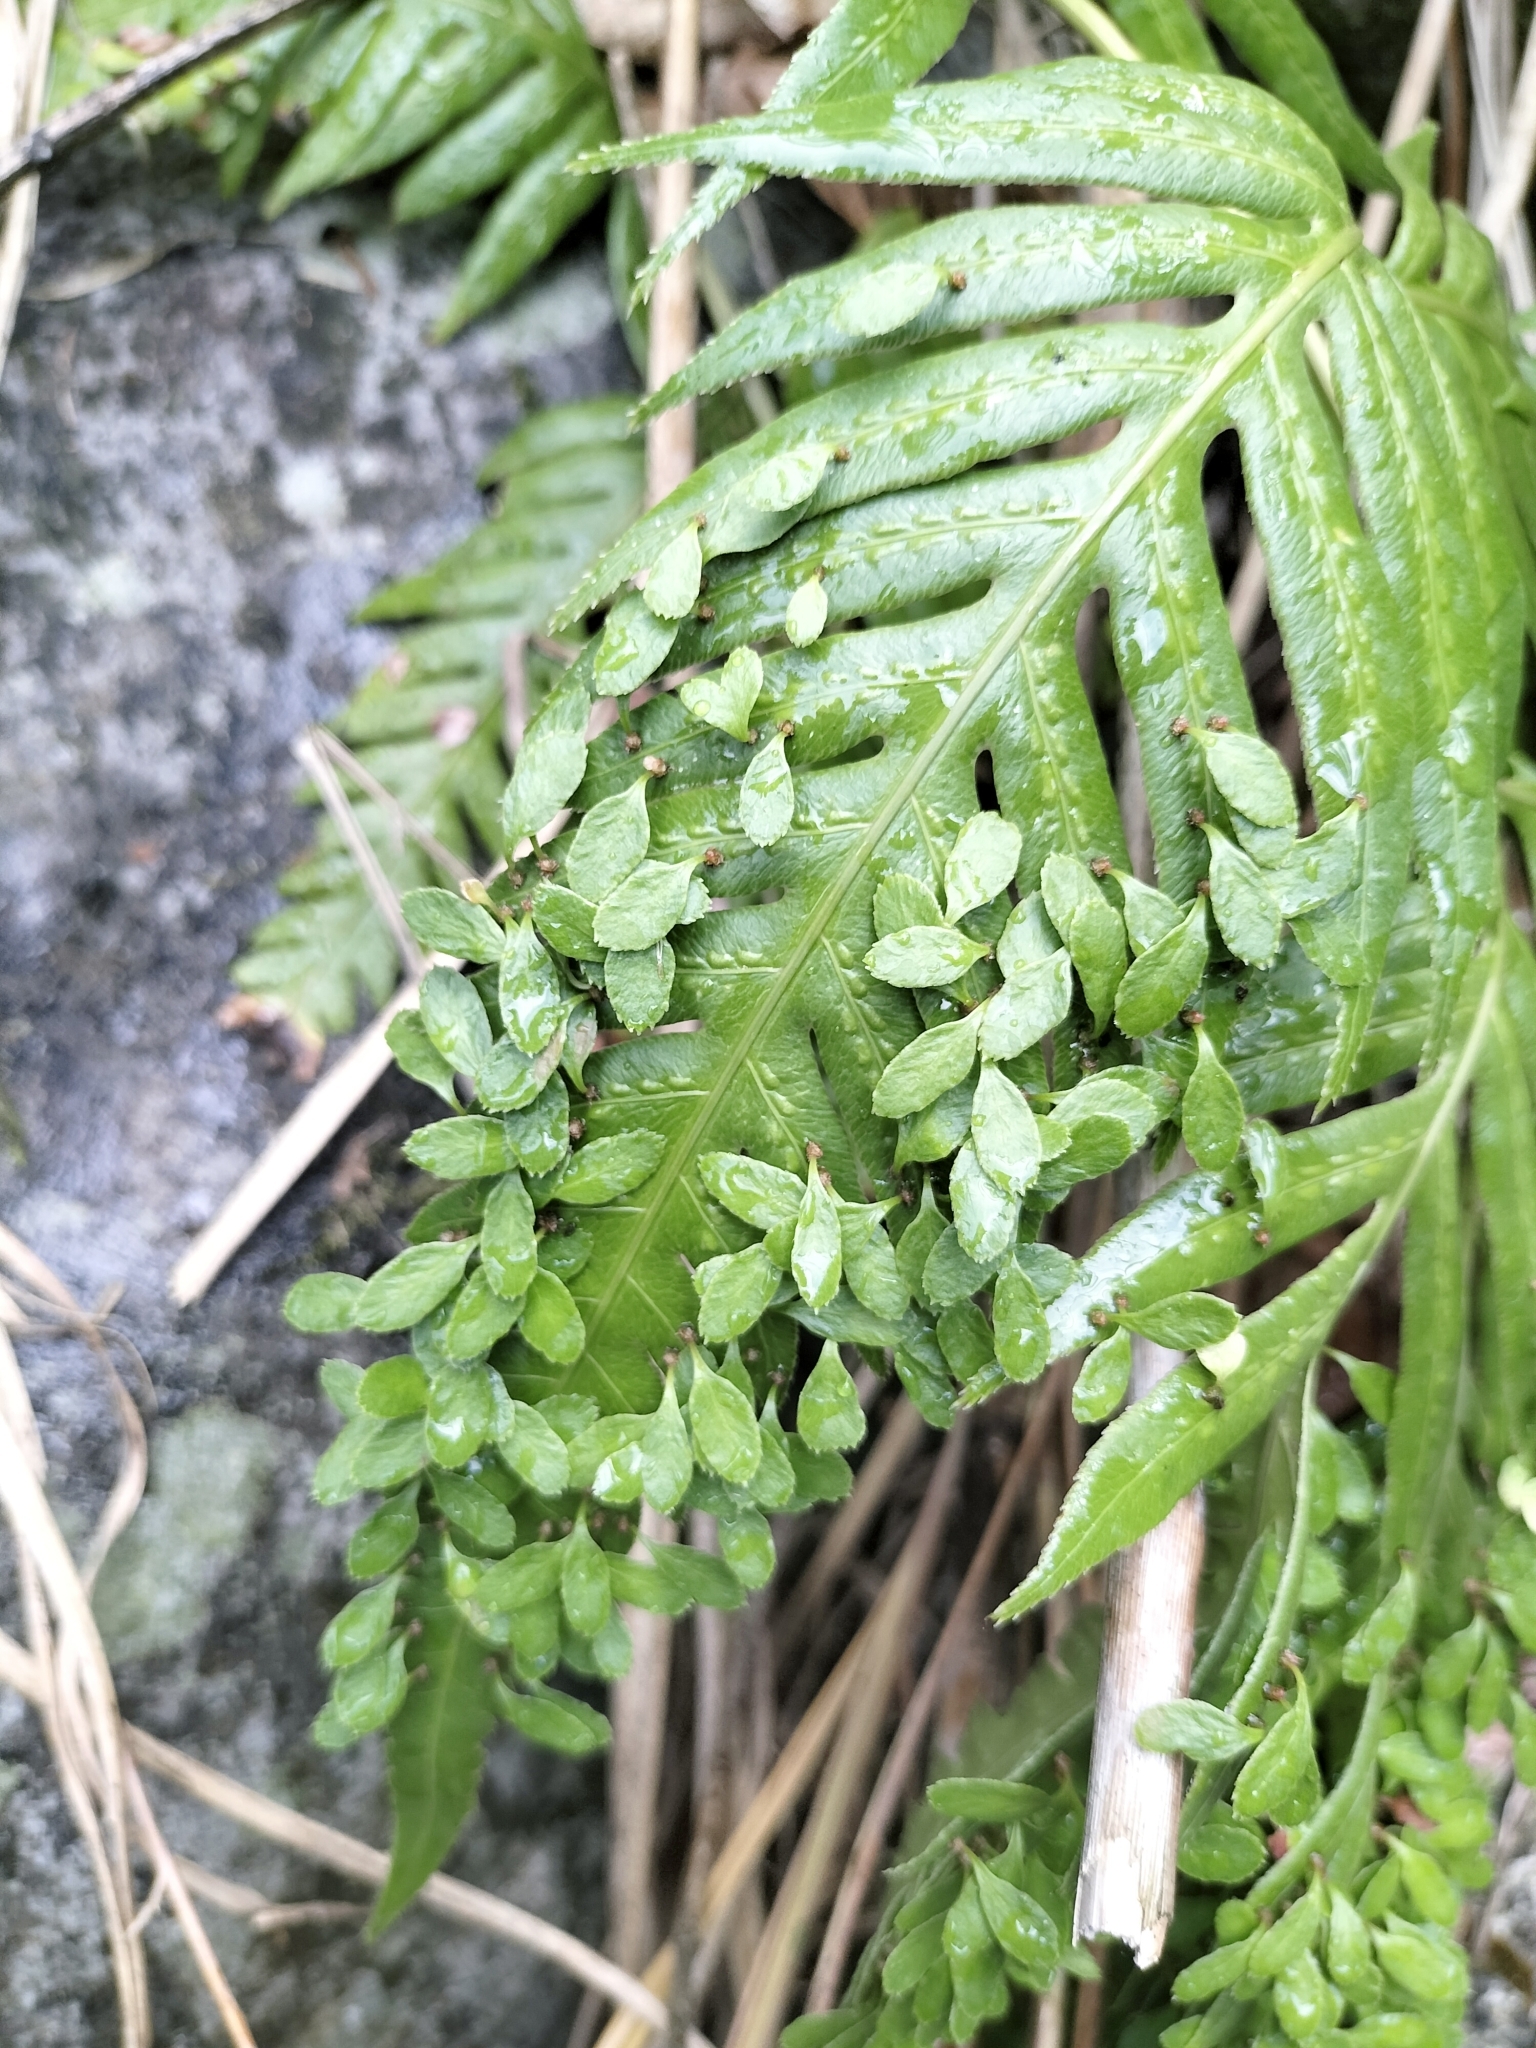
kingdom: Plantae
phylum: Tracheophyta
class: Polypodiopsida
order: Polypodiales
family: Blechnaceae
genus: Woodwardia
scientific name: Woodwardia prolifera
